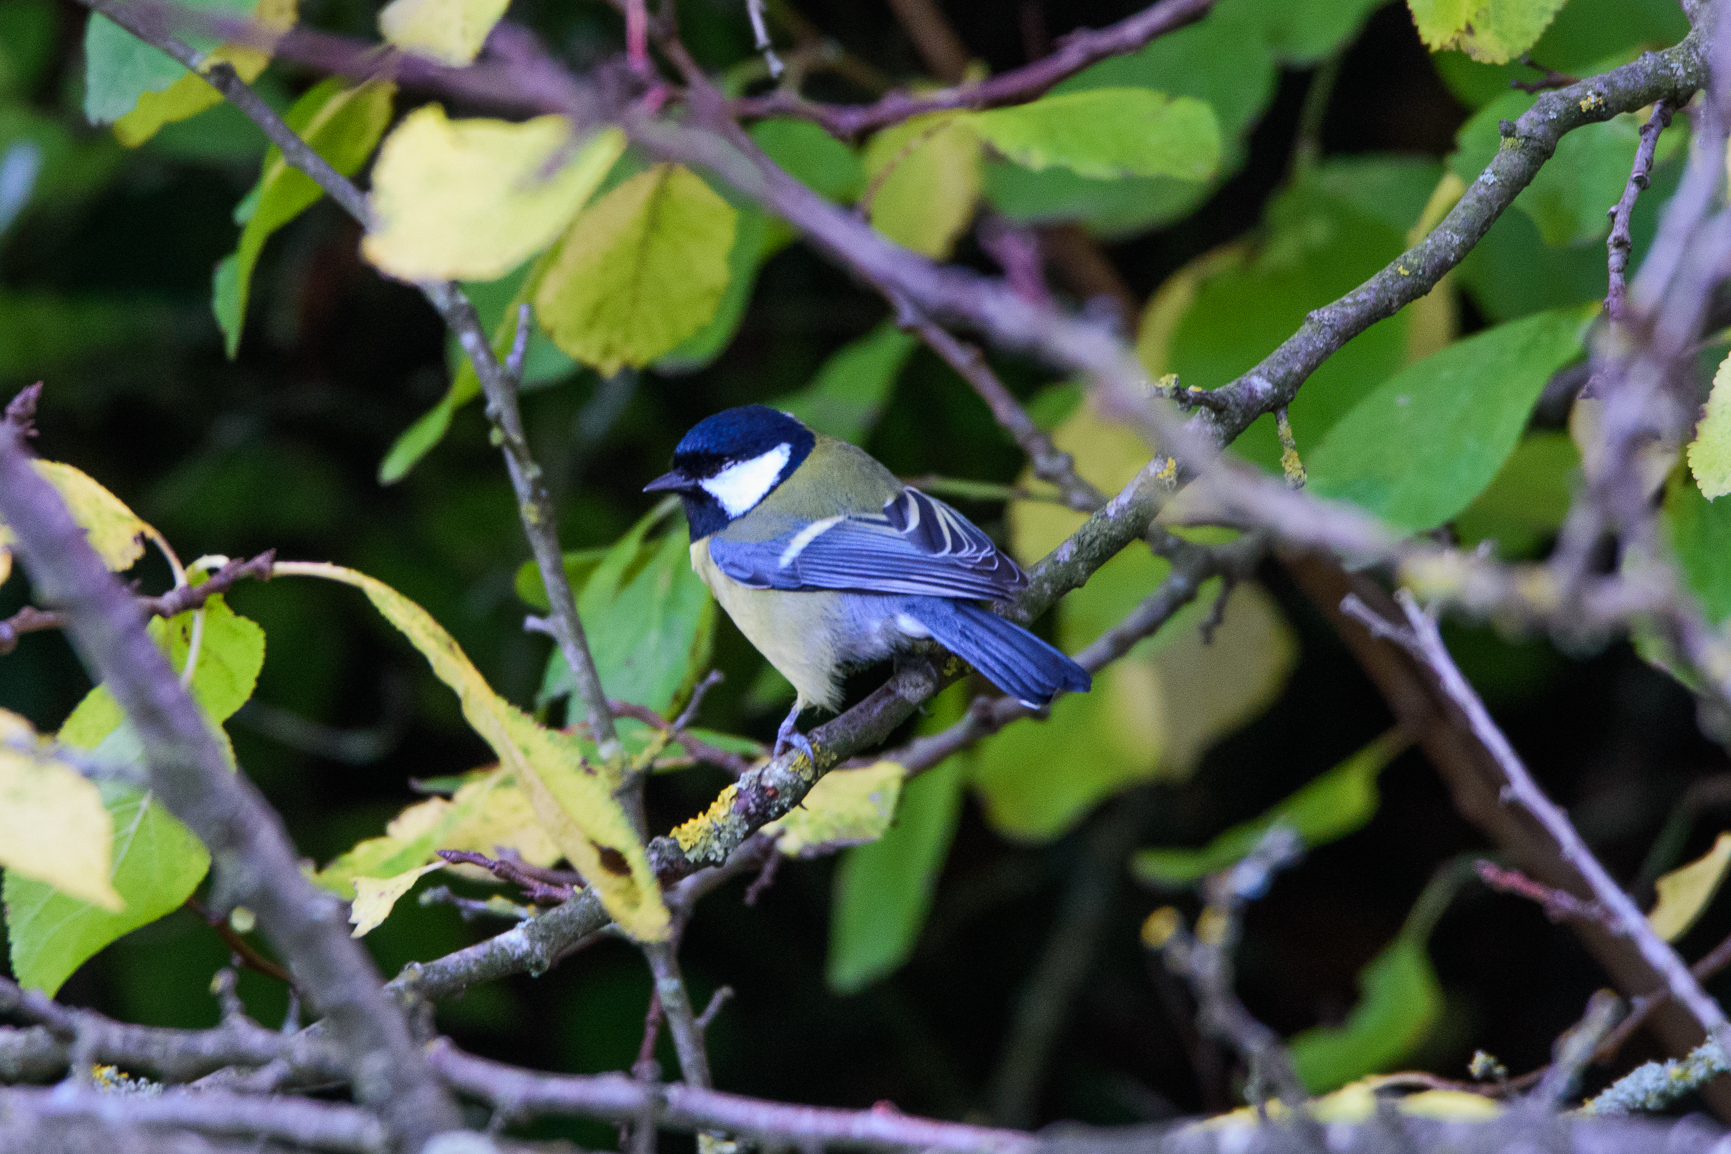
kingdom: Animalia
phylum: Chordata
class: Aves
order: Passeriformes
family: Paridae
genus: Parus
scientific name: Parus major
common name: Great tit
